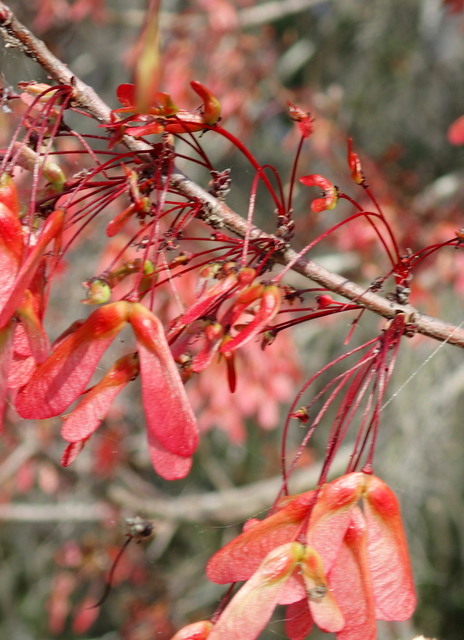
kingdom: Plantae
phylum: Tracheophyta
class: Magnoliopsida
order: Sapindales
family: Sapindaceae
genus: Acer
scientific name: Acer rubrum
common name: Red maple
